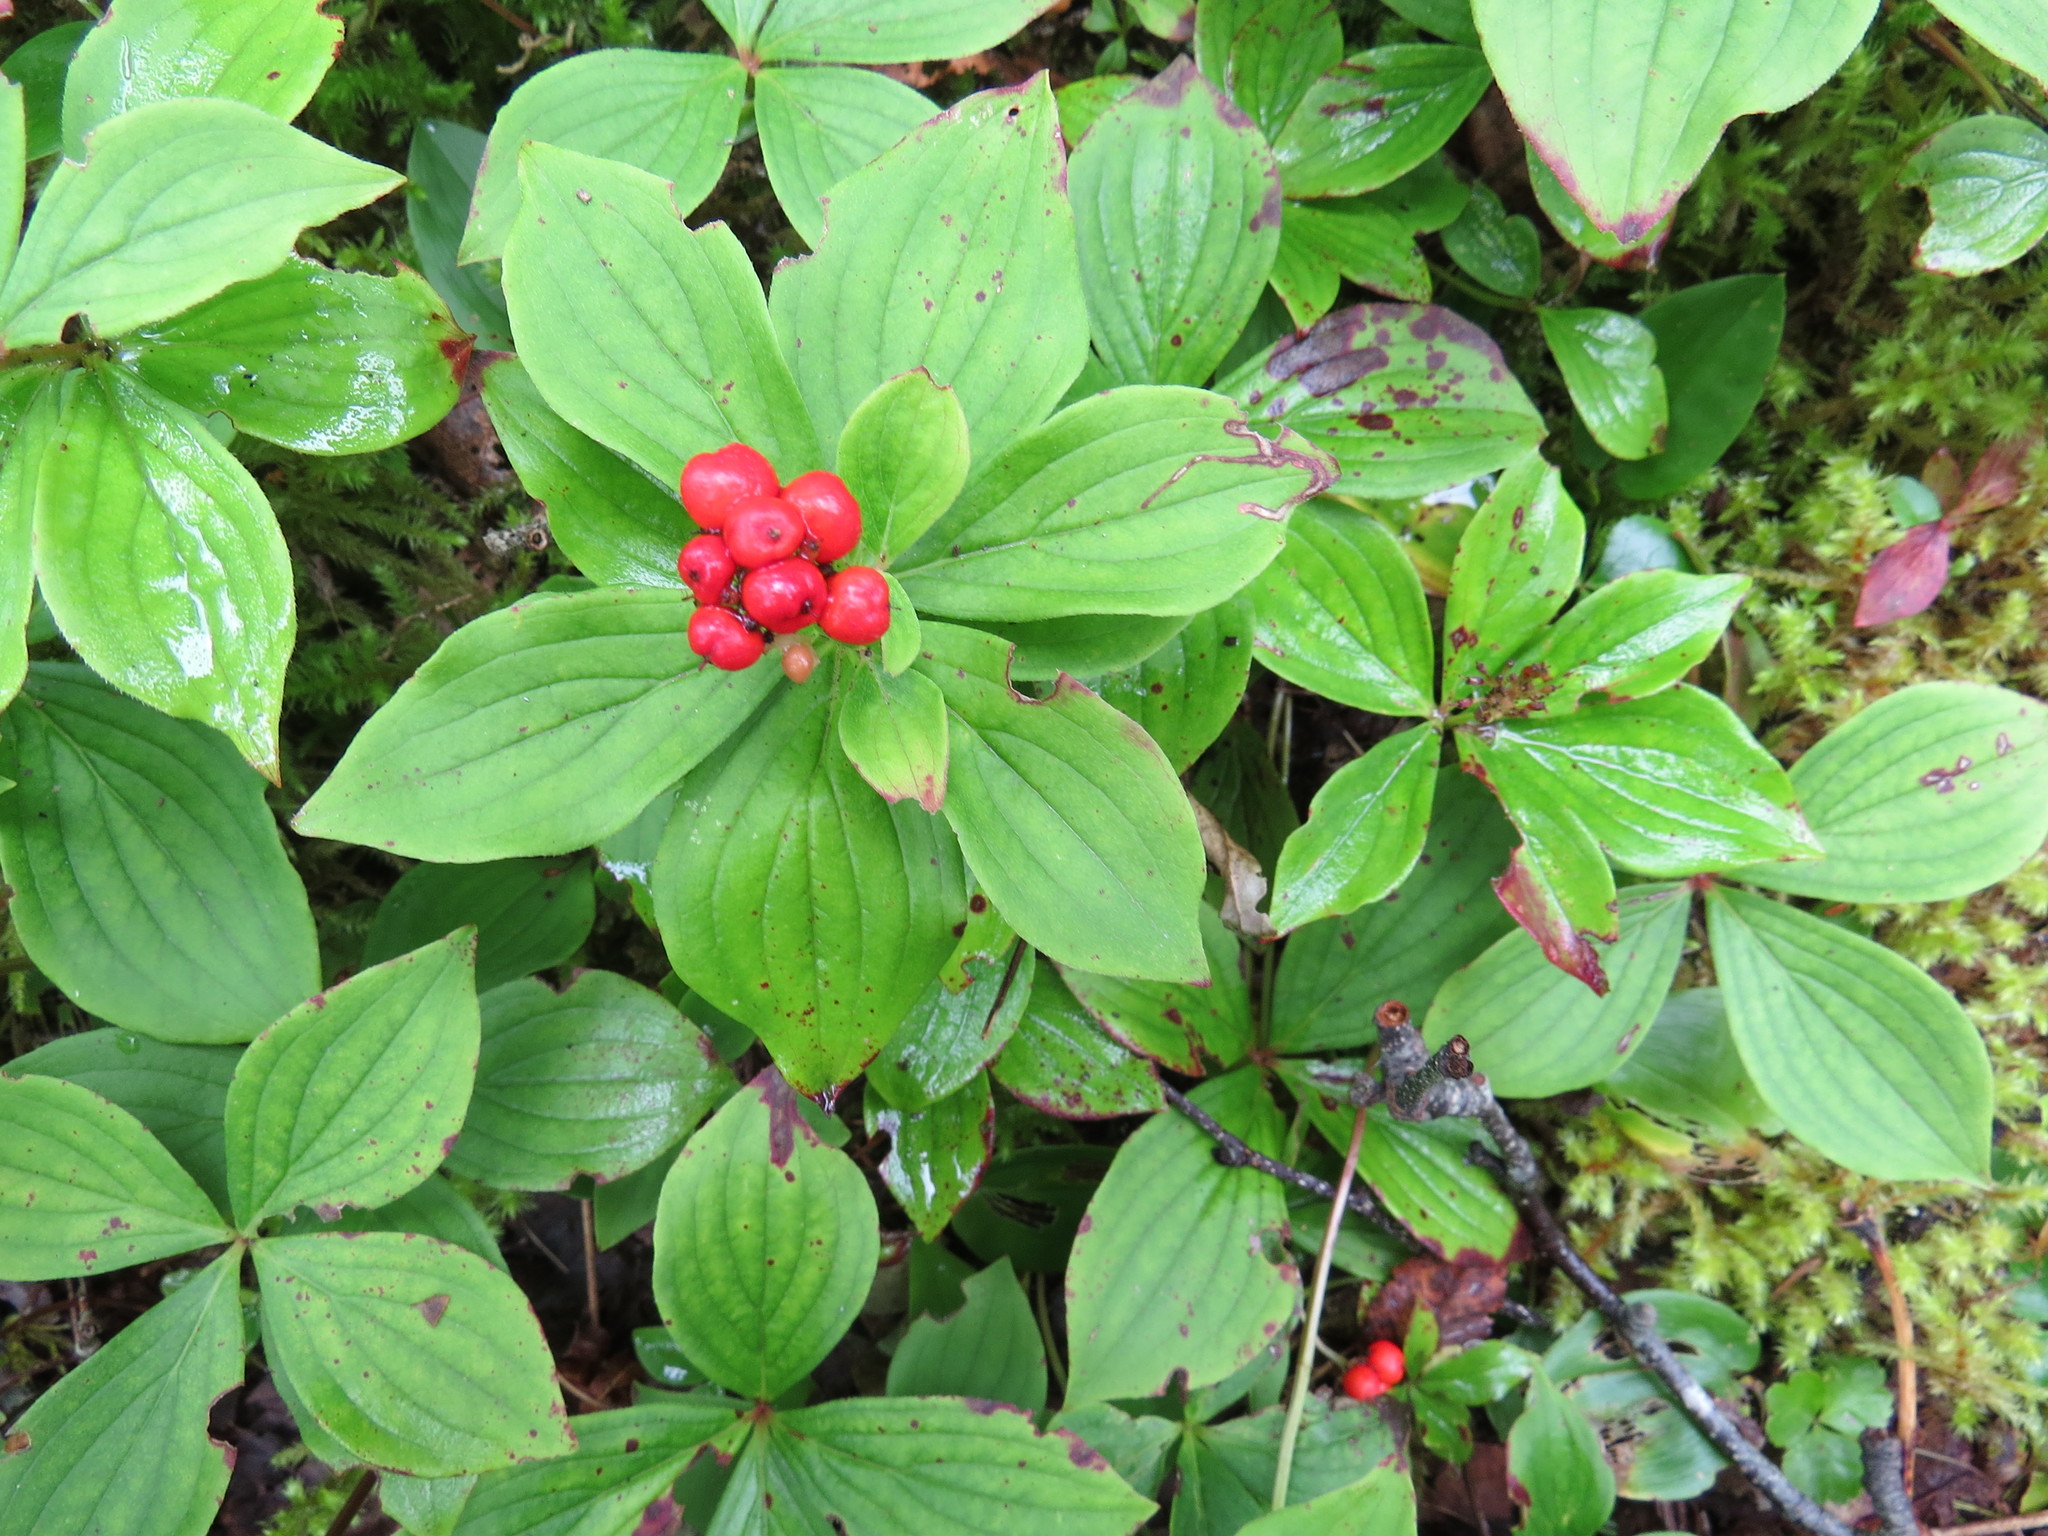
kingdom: Plantae
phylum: Tracheophyta
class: Magnoliopsida
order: Cornales
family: Cornaceae
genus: Cornus
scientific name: Cornus canadensis
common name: Creeping dogwood
